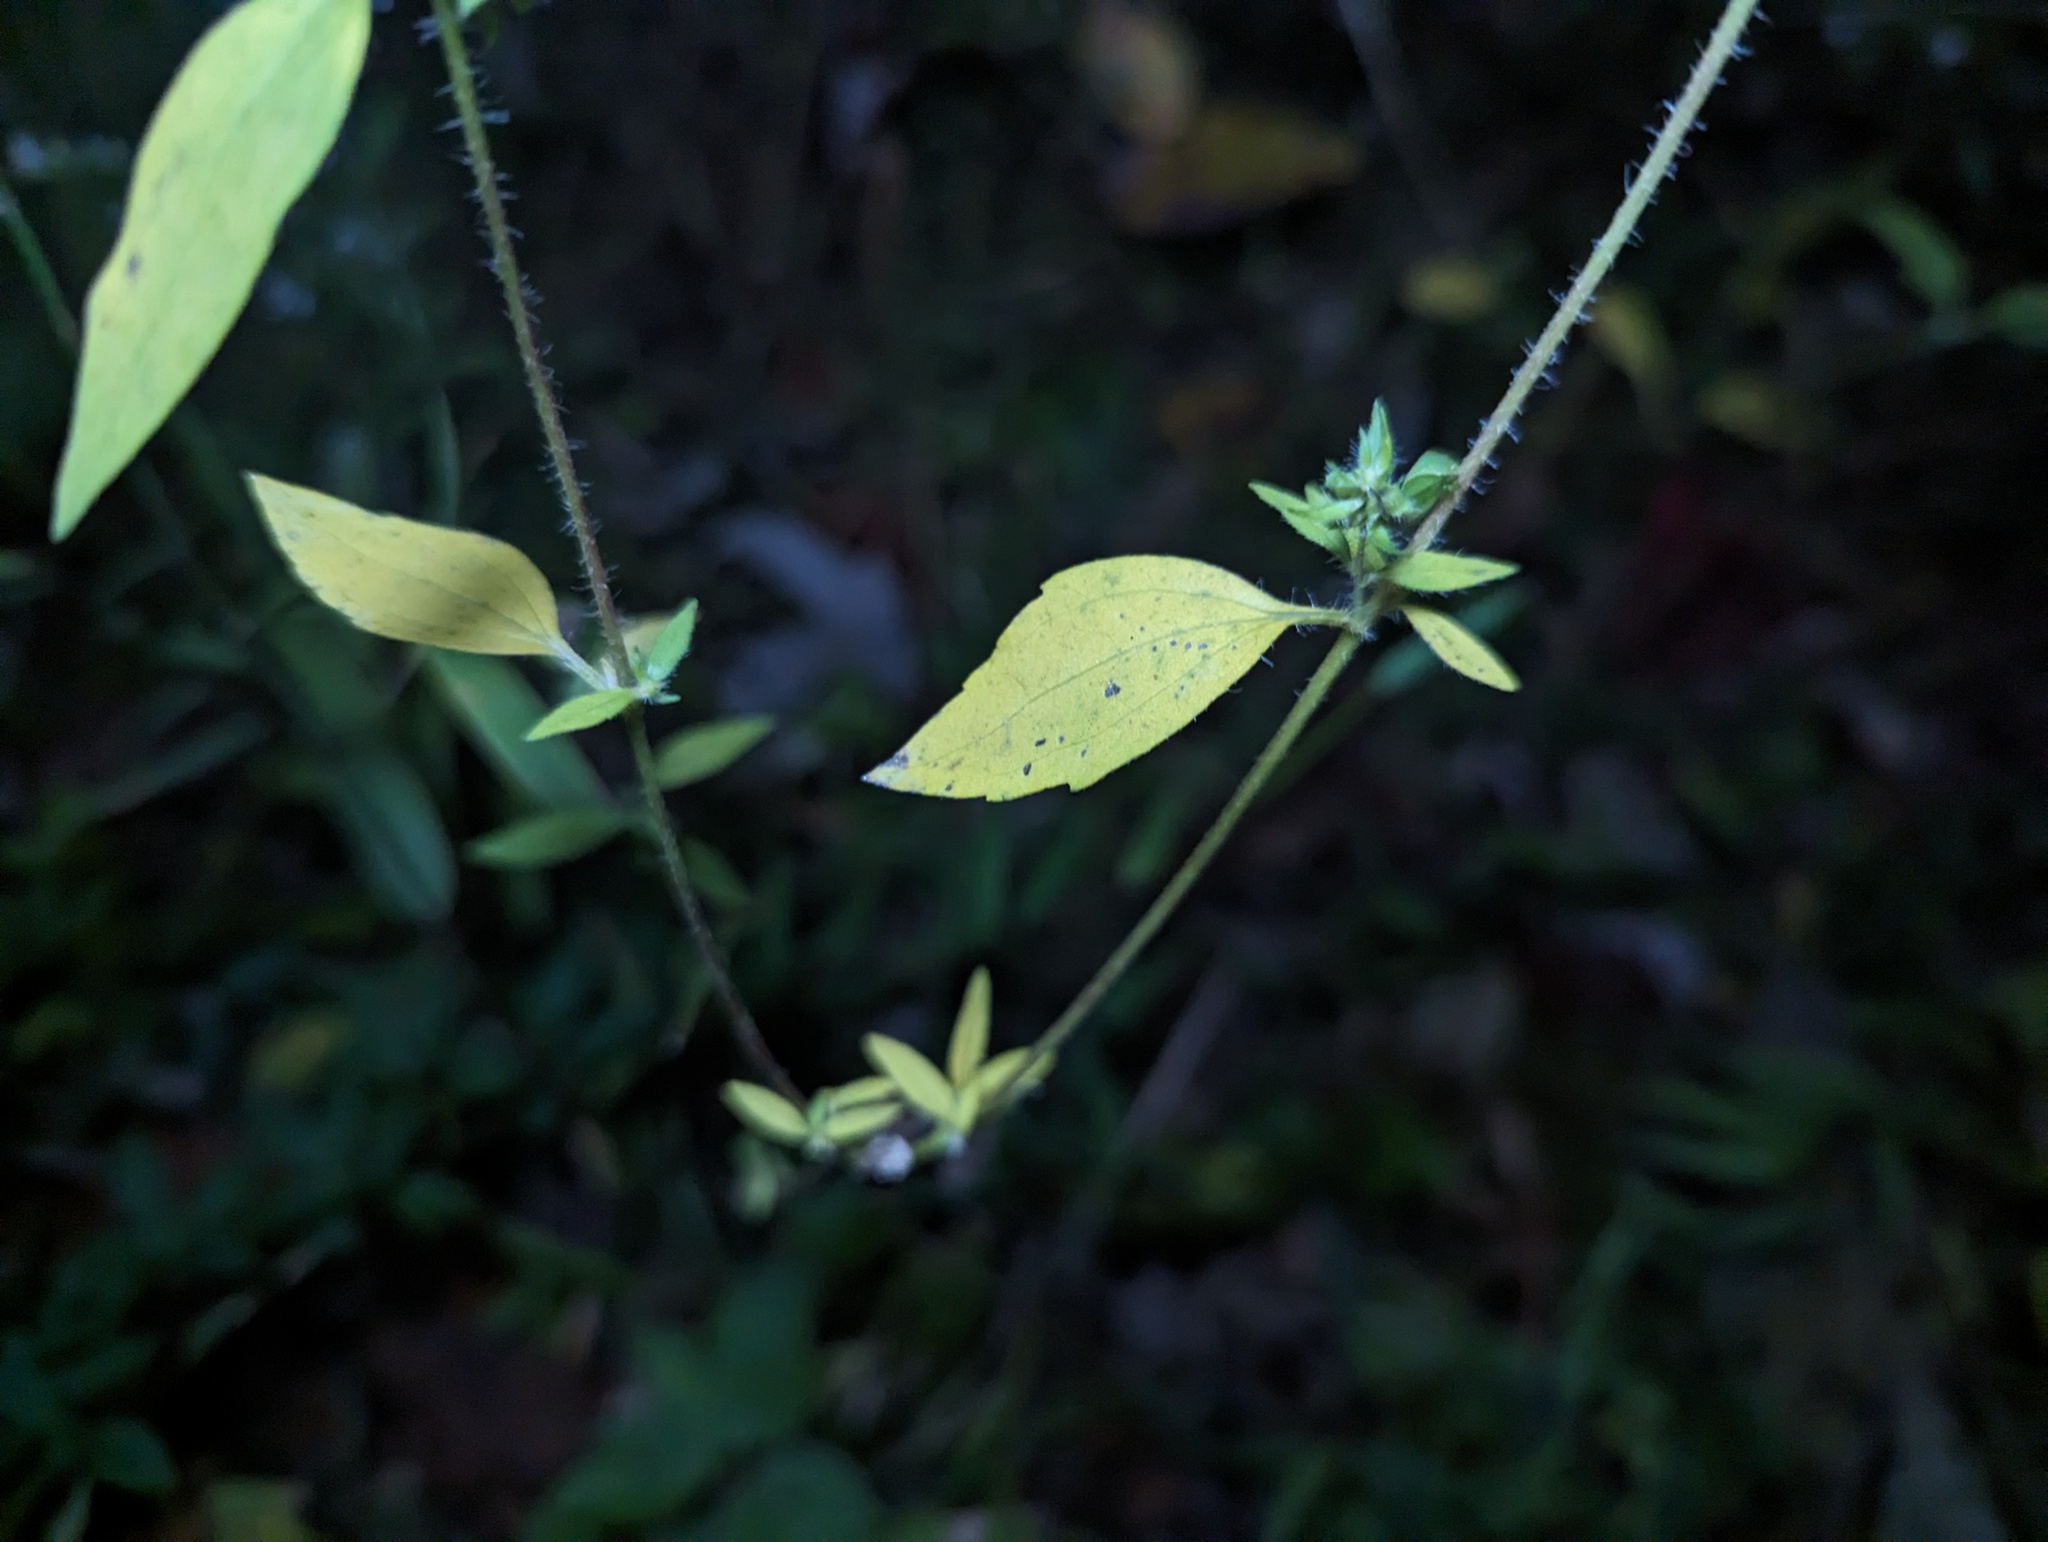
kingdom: Plantae
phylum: Tracheophyta
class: Magnoliopsida
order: Asterales
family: Asteraceae
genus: Iva
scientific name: Iva annua
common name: Marsh-elder
